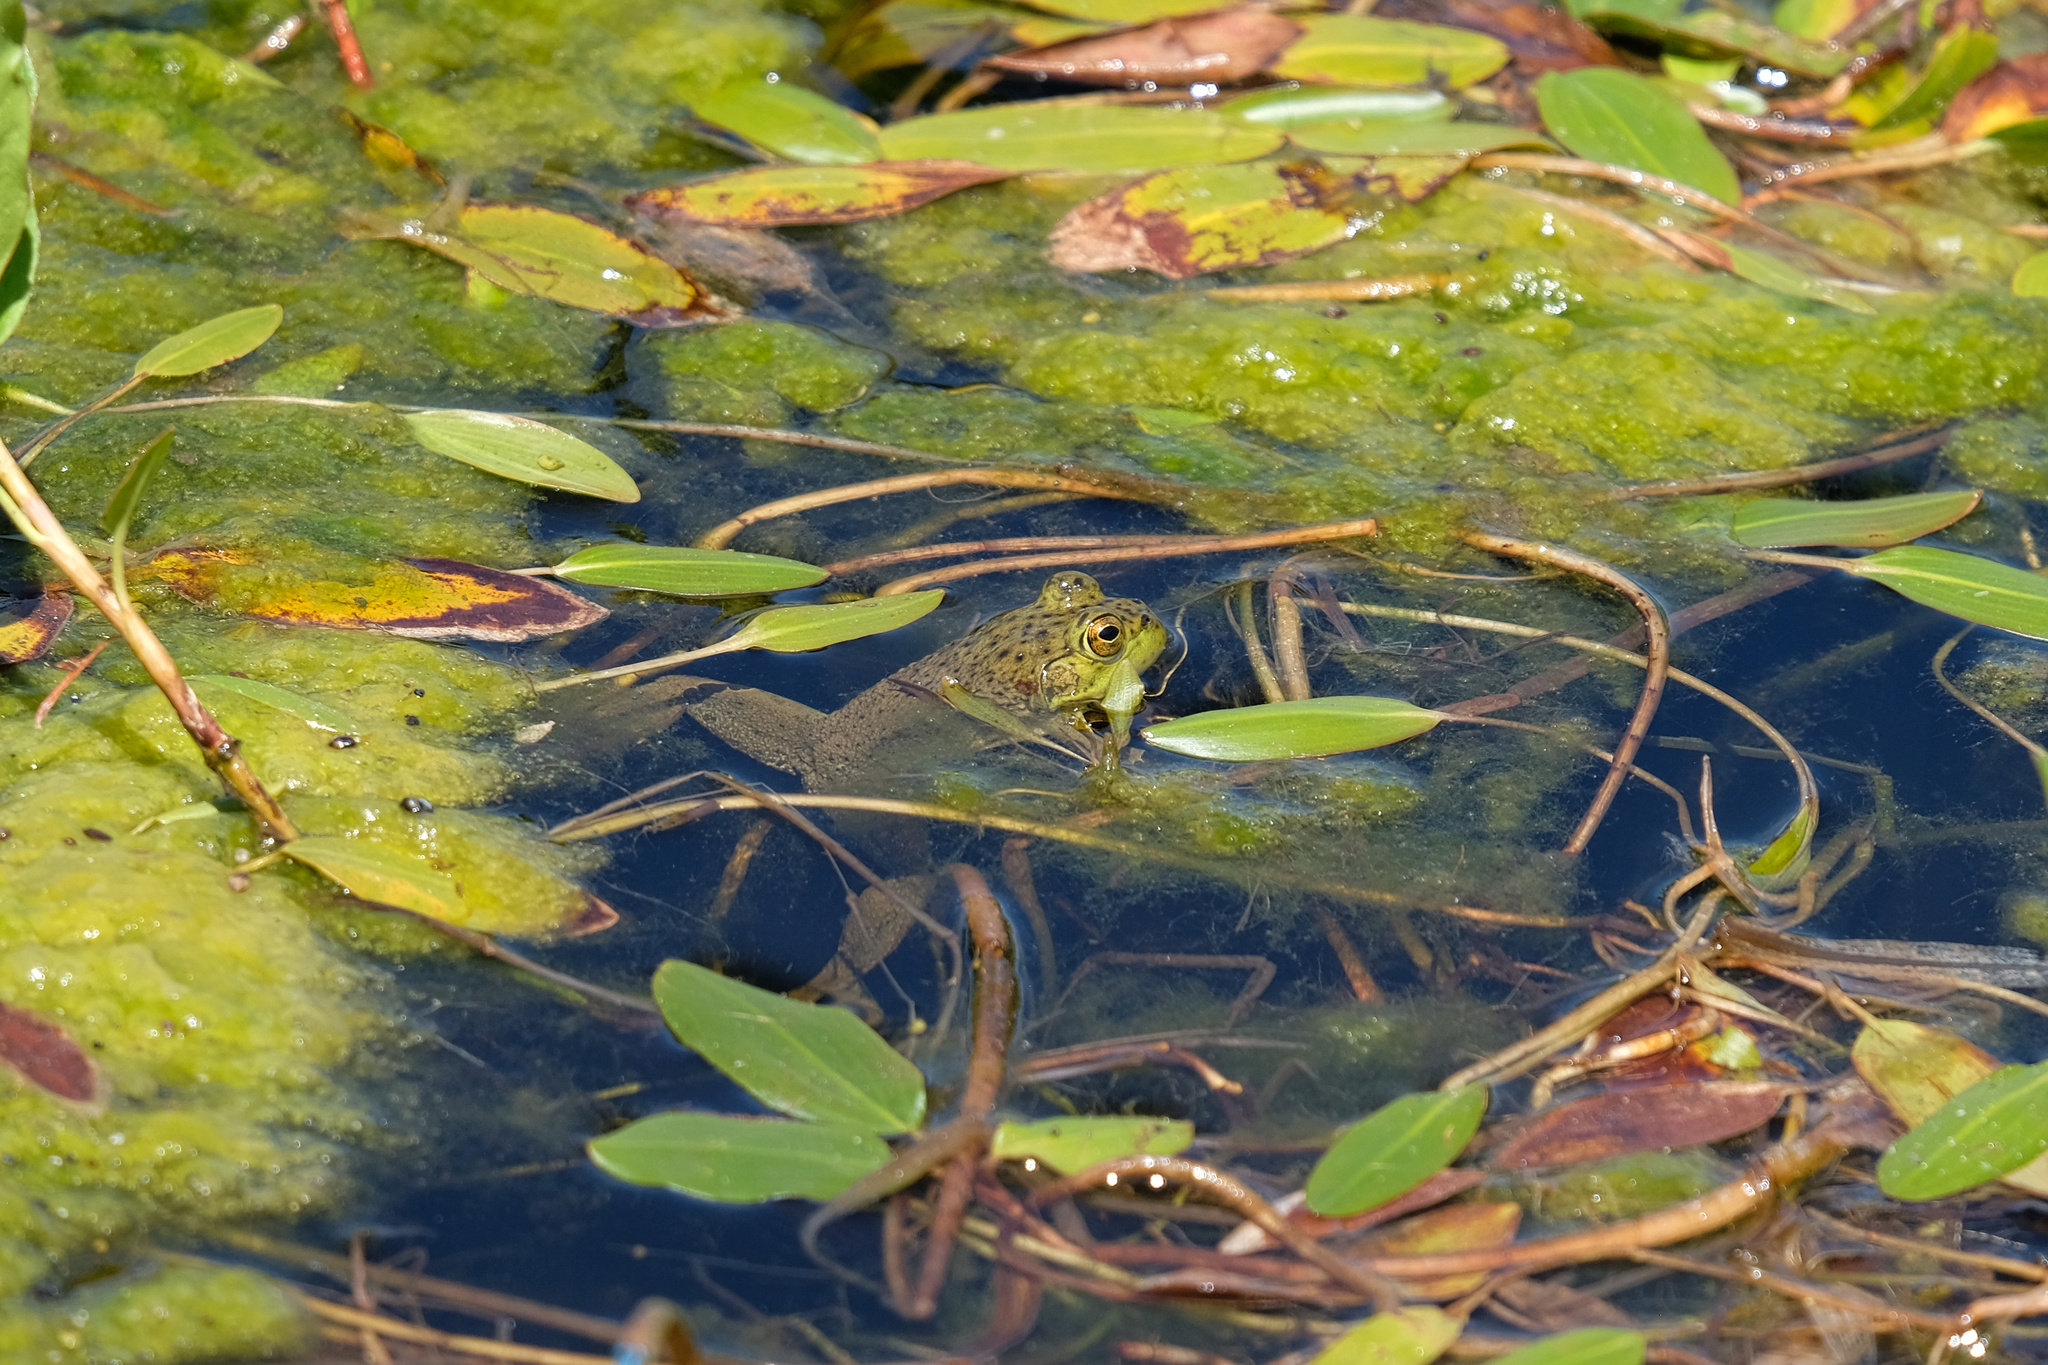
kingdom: Animalia
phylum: Chordata
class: Amphibia
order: Anura
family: Ranidae
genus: Lithobates
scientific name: Lithobates catesbeianus
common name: American bullfrog
